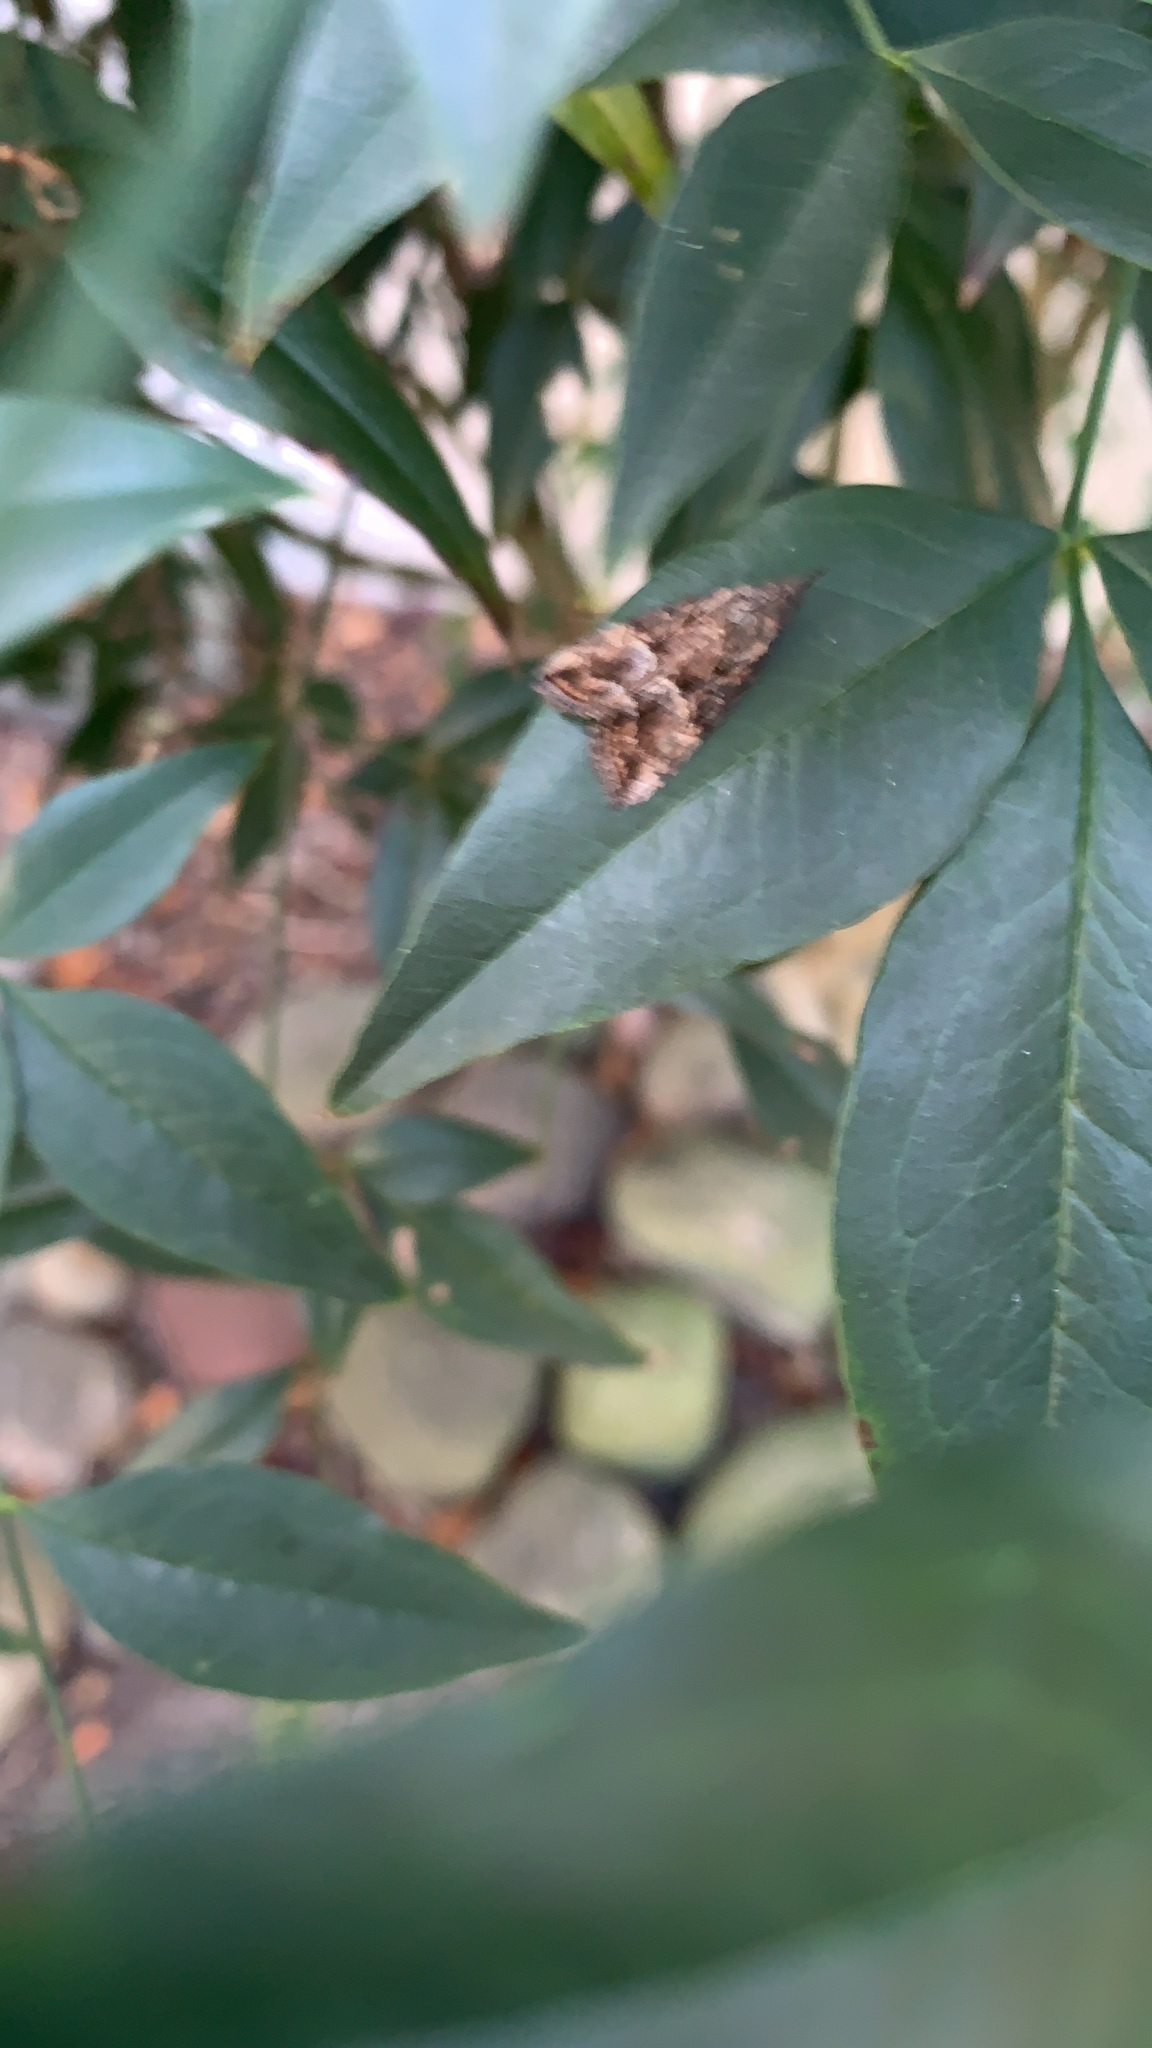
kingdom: Animalia
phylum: Arthropoda
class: Insecta
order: Lepidoptera
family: Erebidae
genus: Hypena
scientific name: Hypena scabra
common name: Green cloverworm
